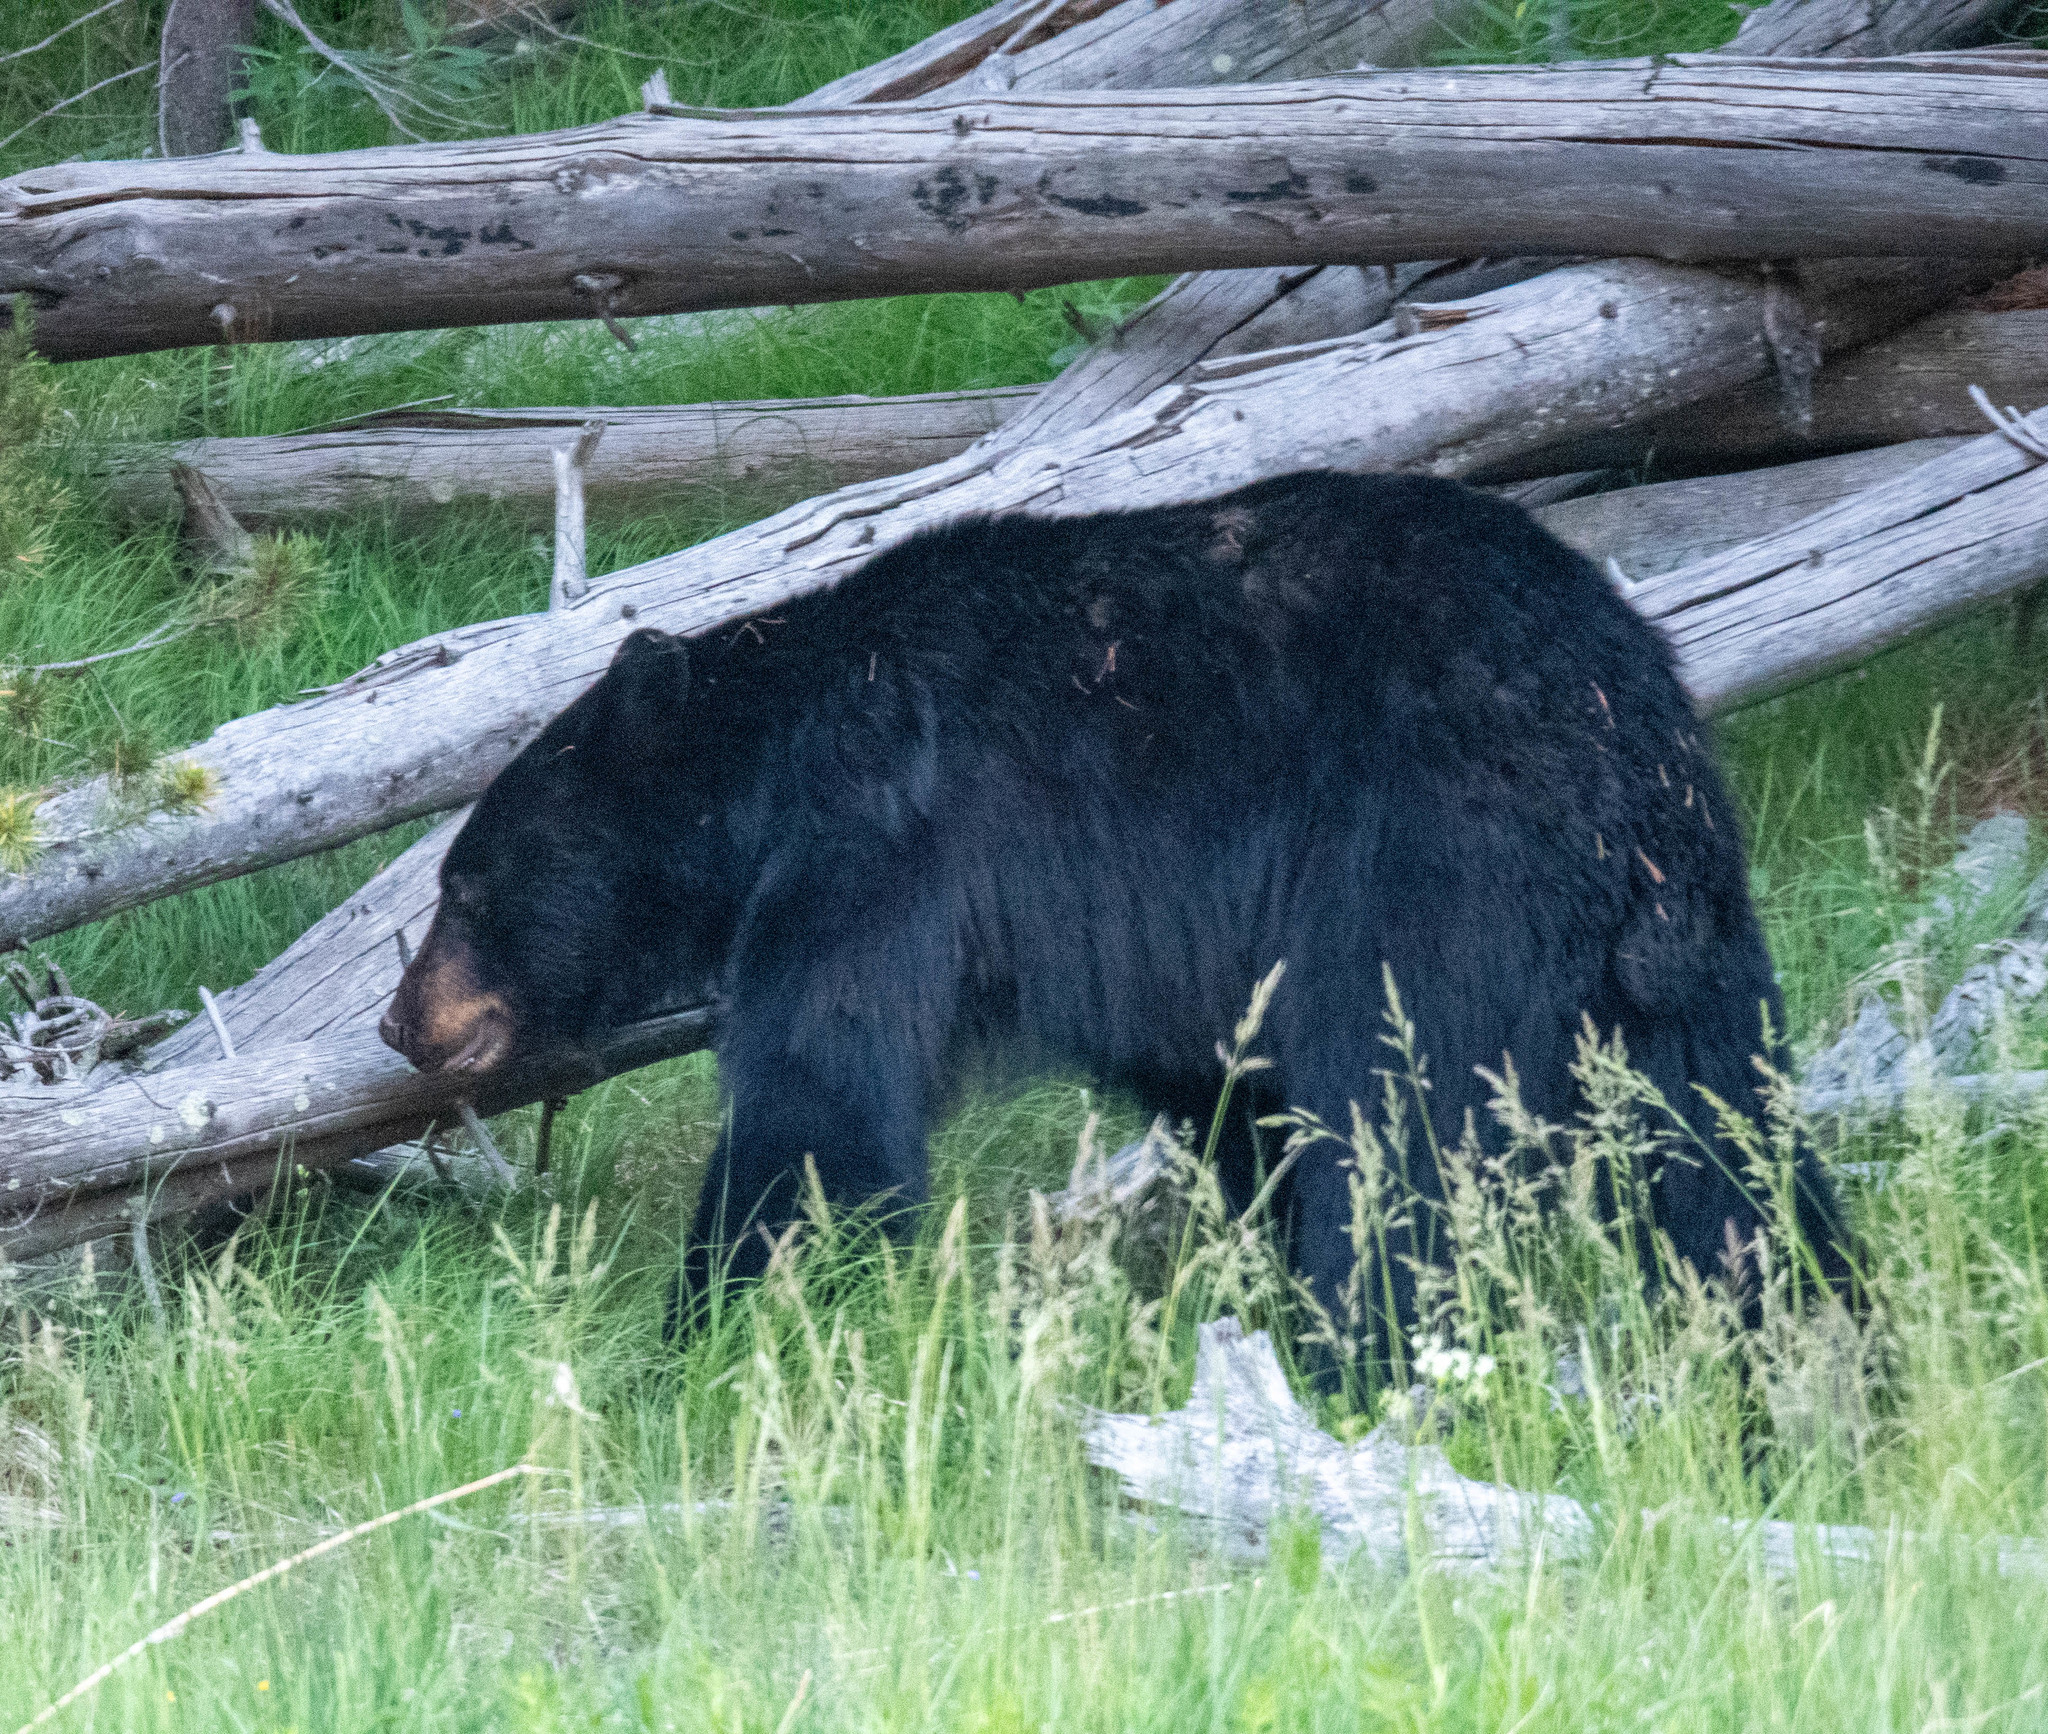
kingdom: Animalia
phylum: Chordata
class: Mammalia
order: Carnivora
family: Ursidae
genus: Ursus
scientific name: Ursus americanus
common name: American black bear
